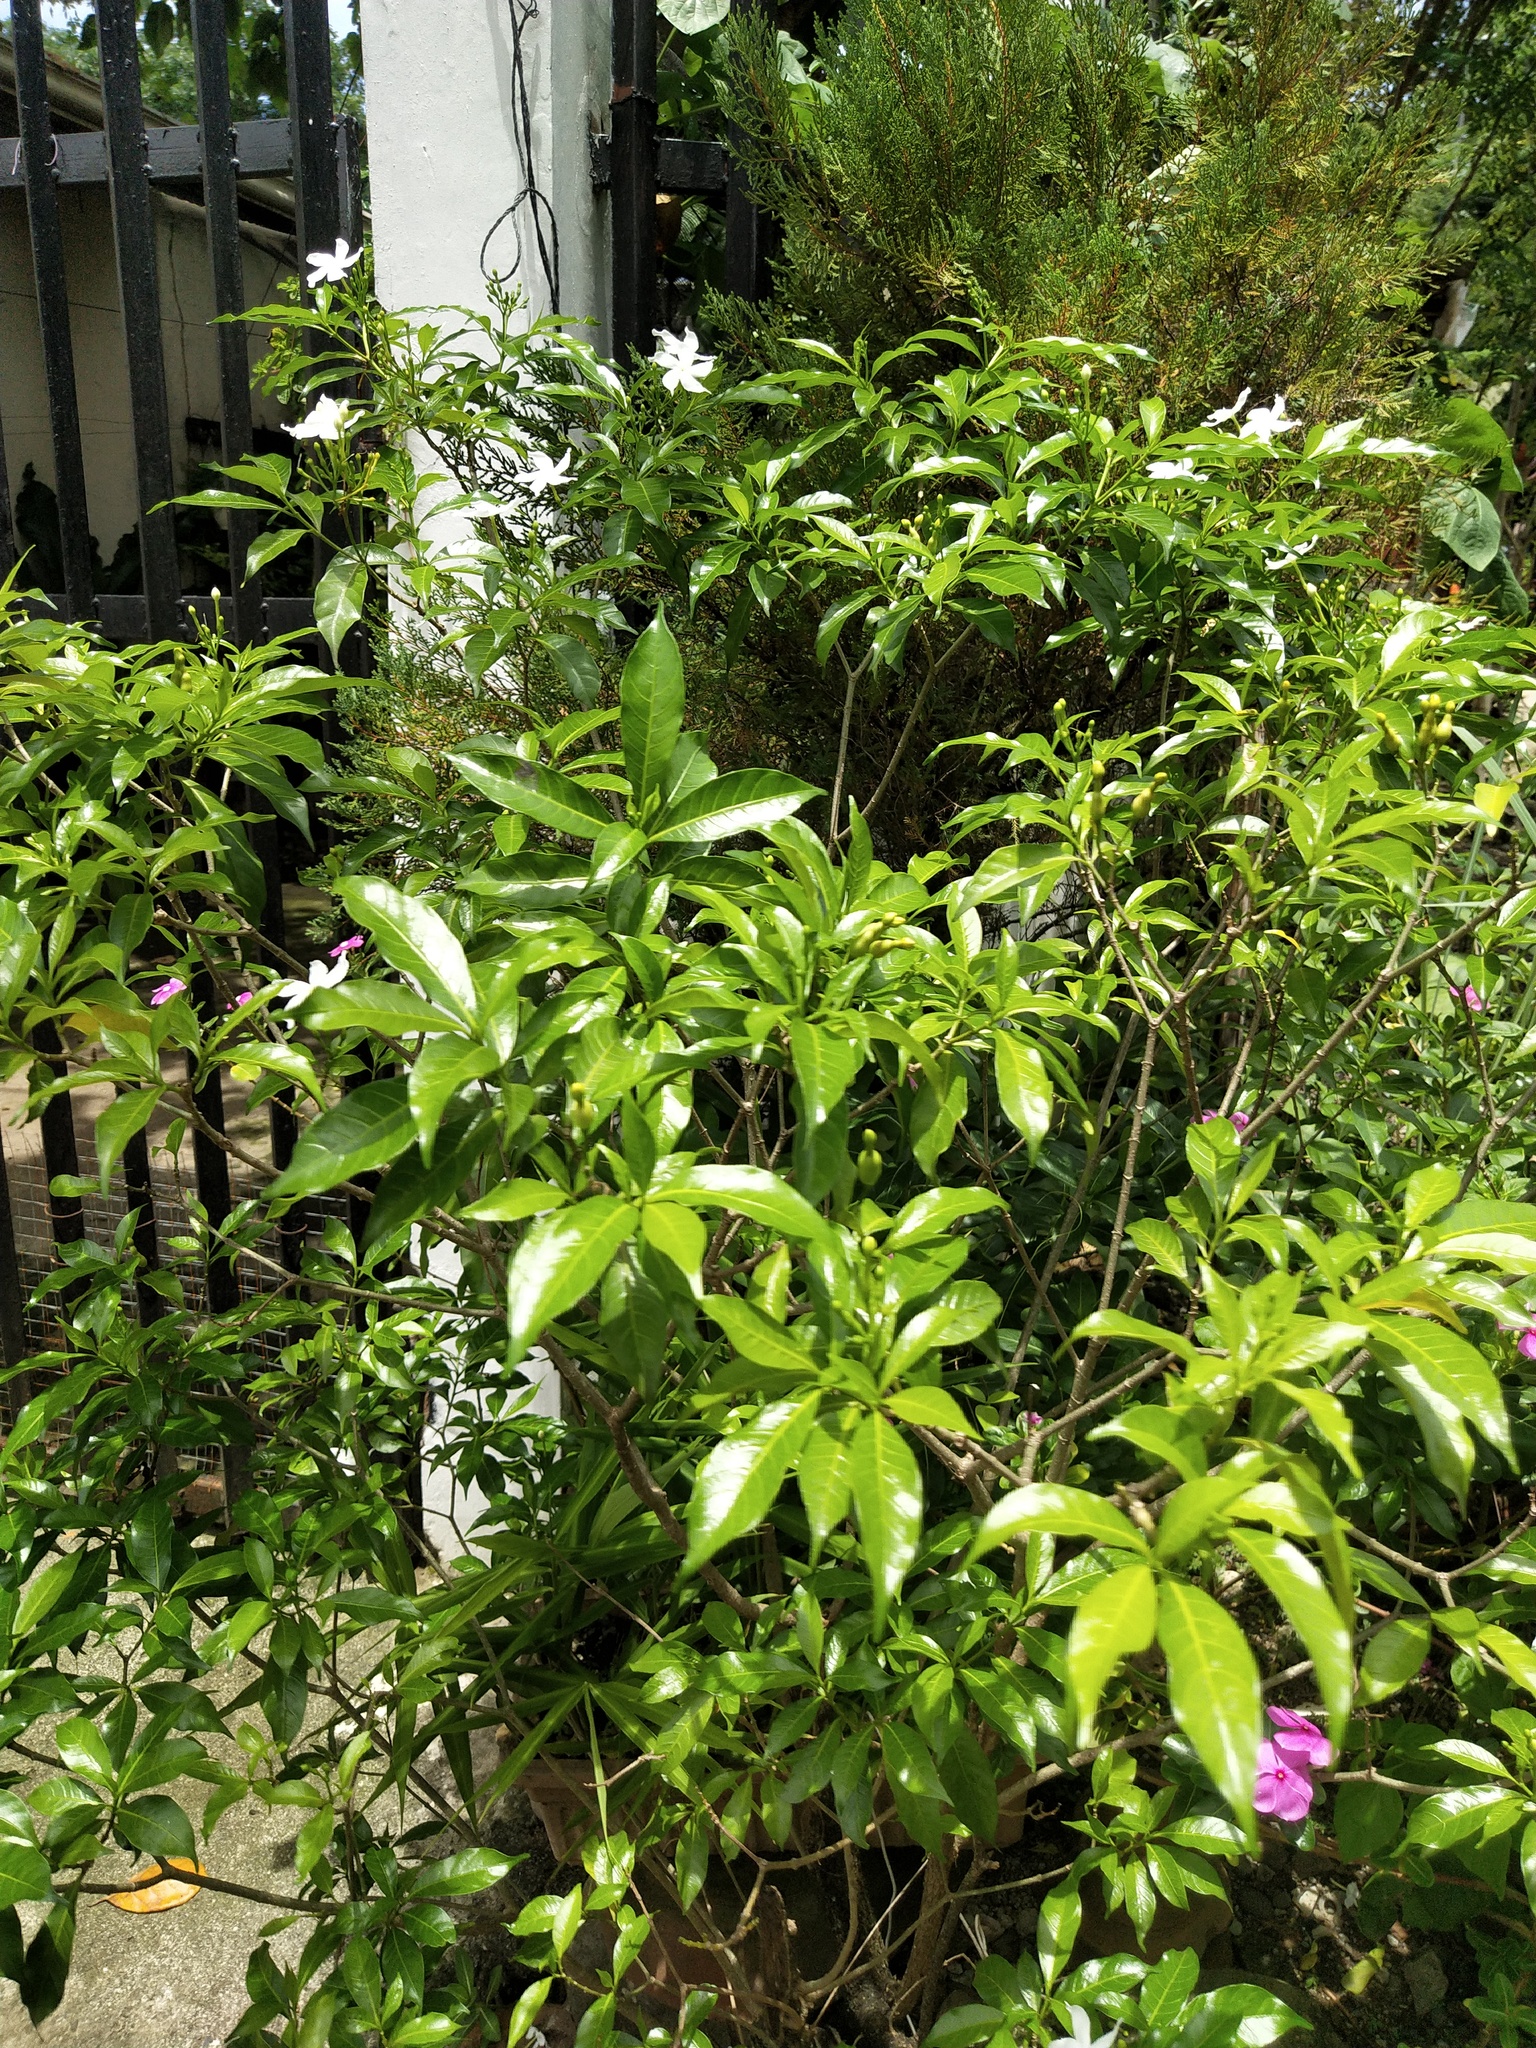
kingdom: Plantae
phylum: Tracheophyta
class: Magnoliopsida
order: Gentianales
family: Apocynaceae
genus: Tabernaemontana
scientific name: Tabernaemontana corymbosa
